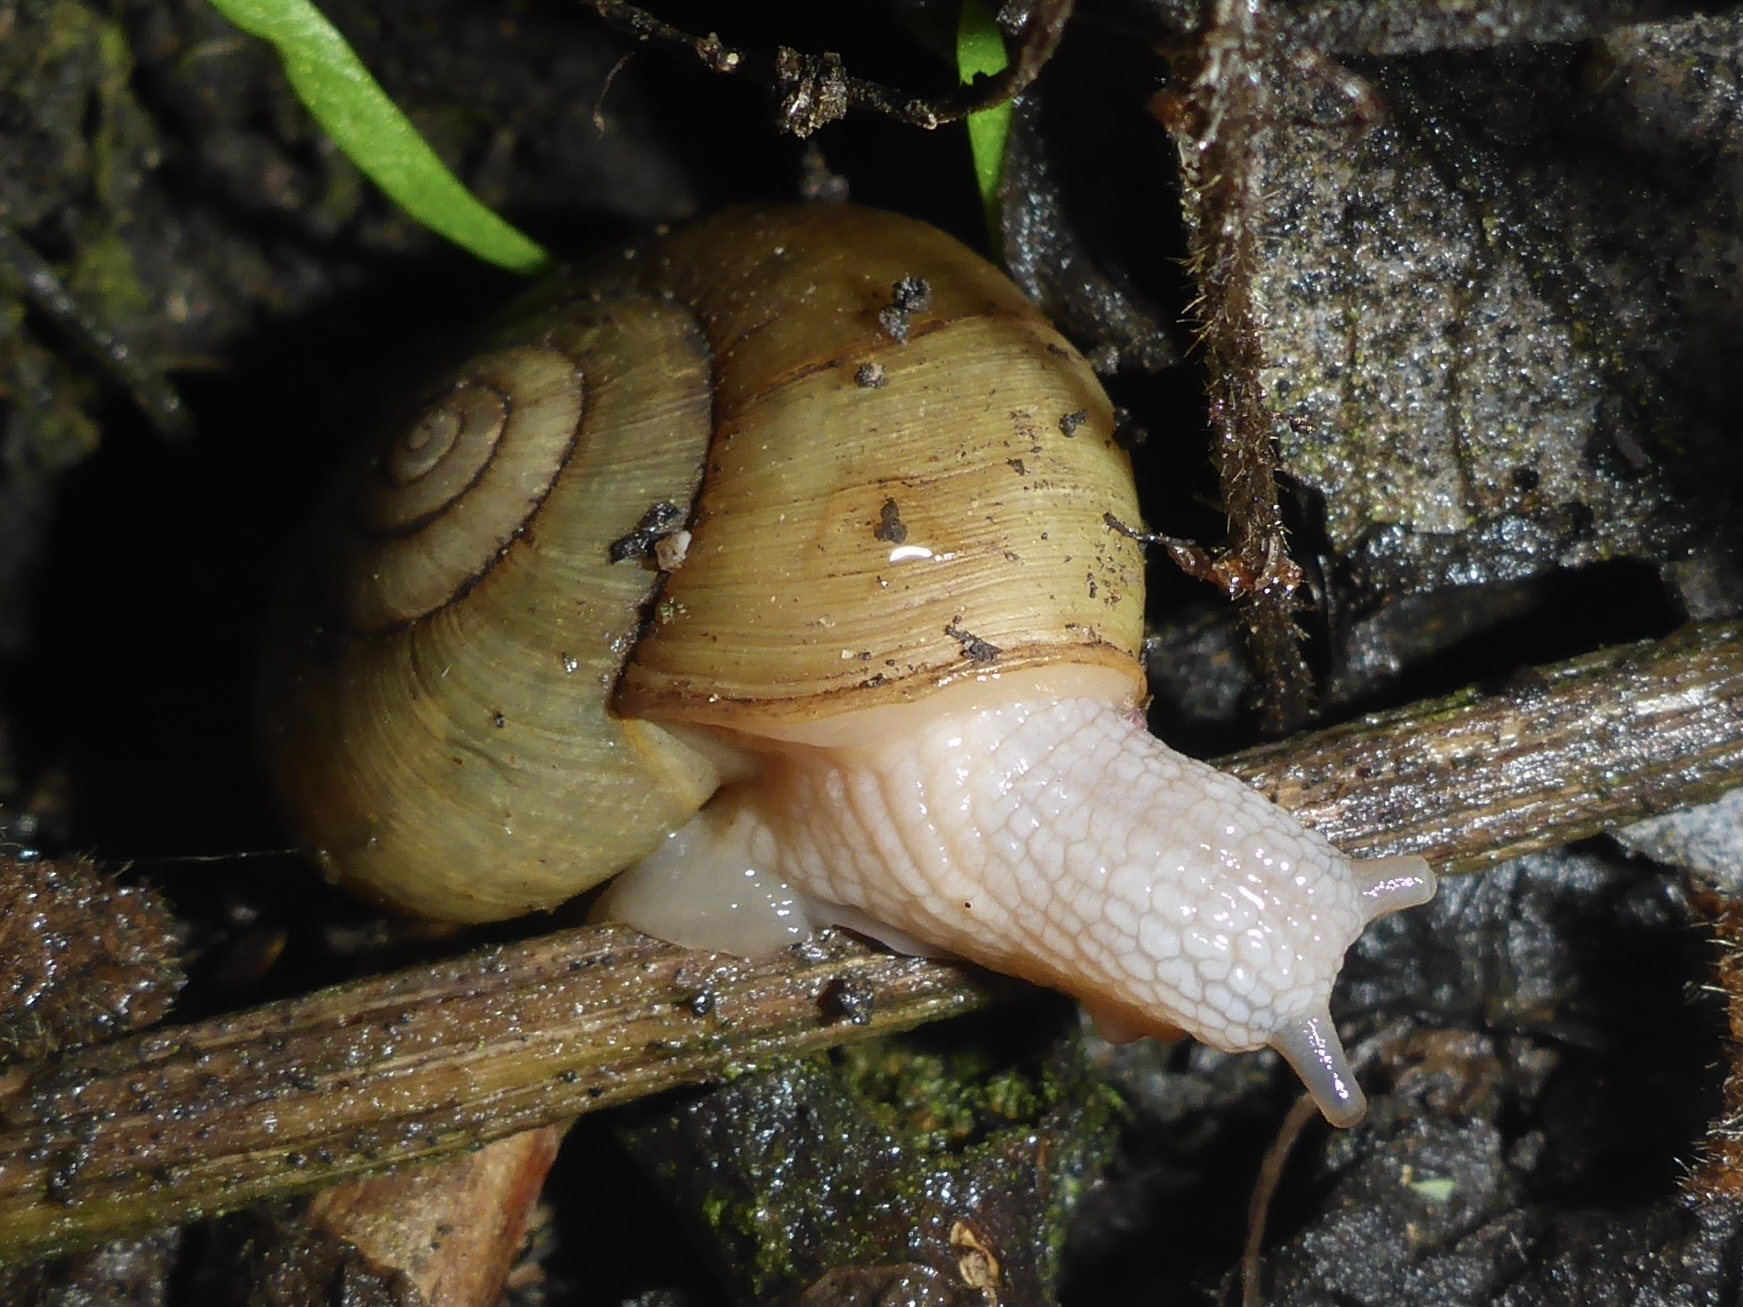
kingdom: Animalia
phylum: Mollusca
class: Gastropoda
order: Stylommatophora
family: Haplotrematidae
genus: Haplotrema
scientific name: Haplotrema minimum
